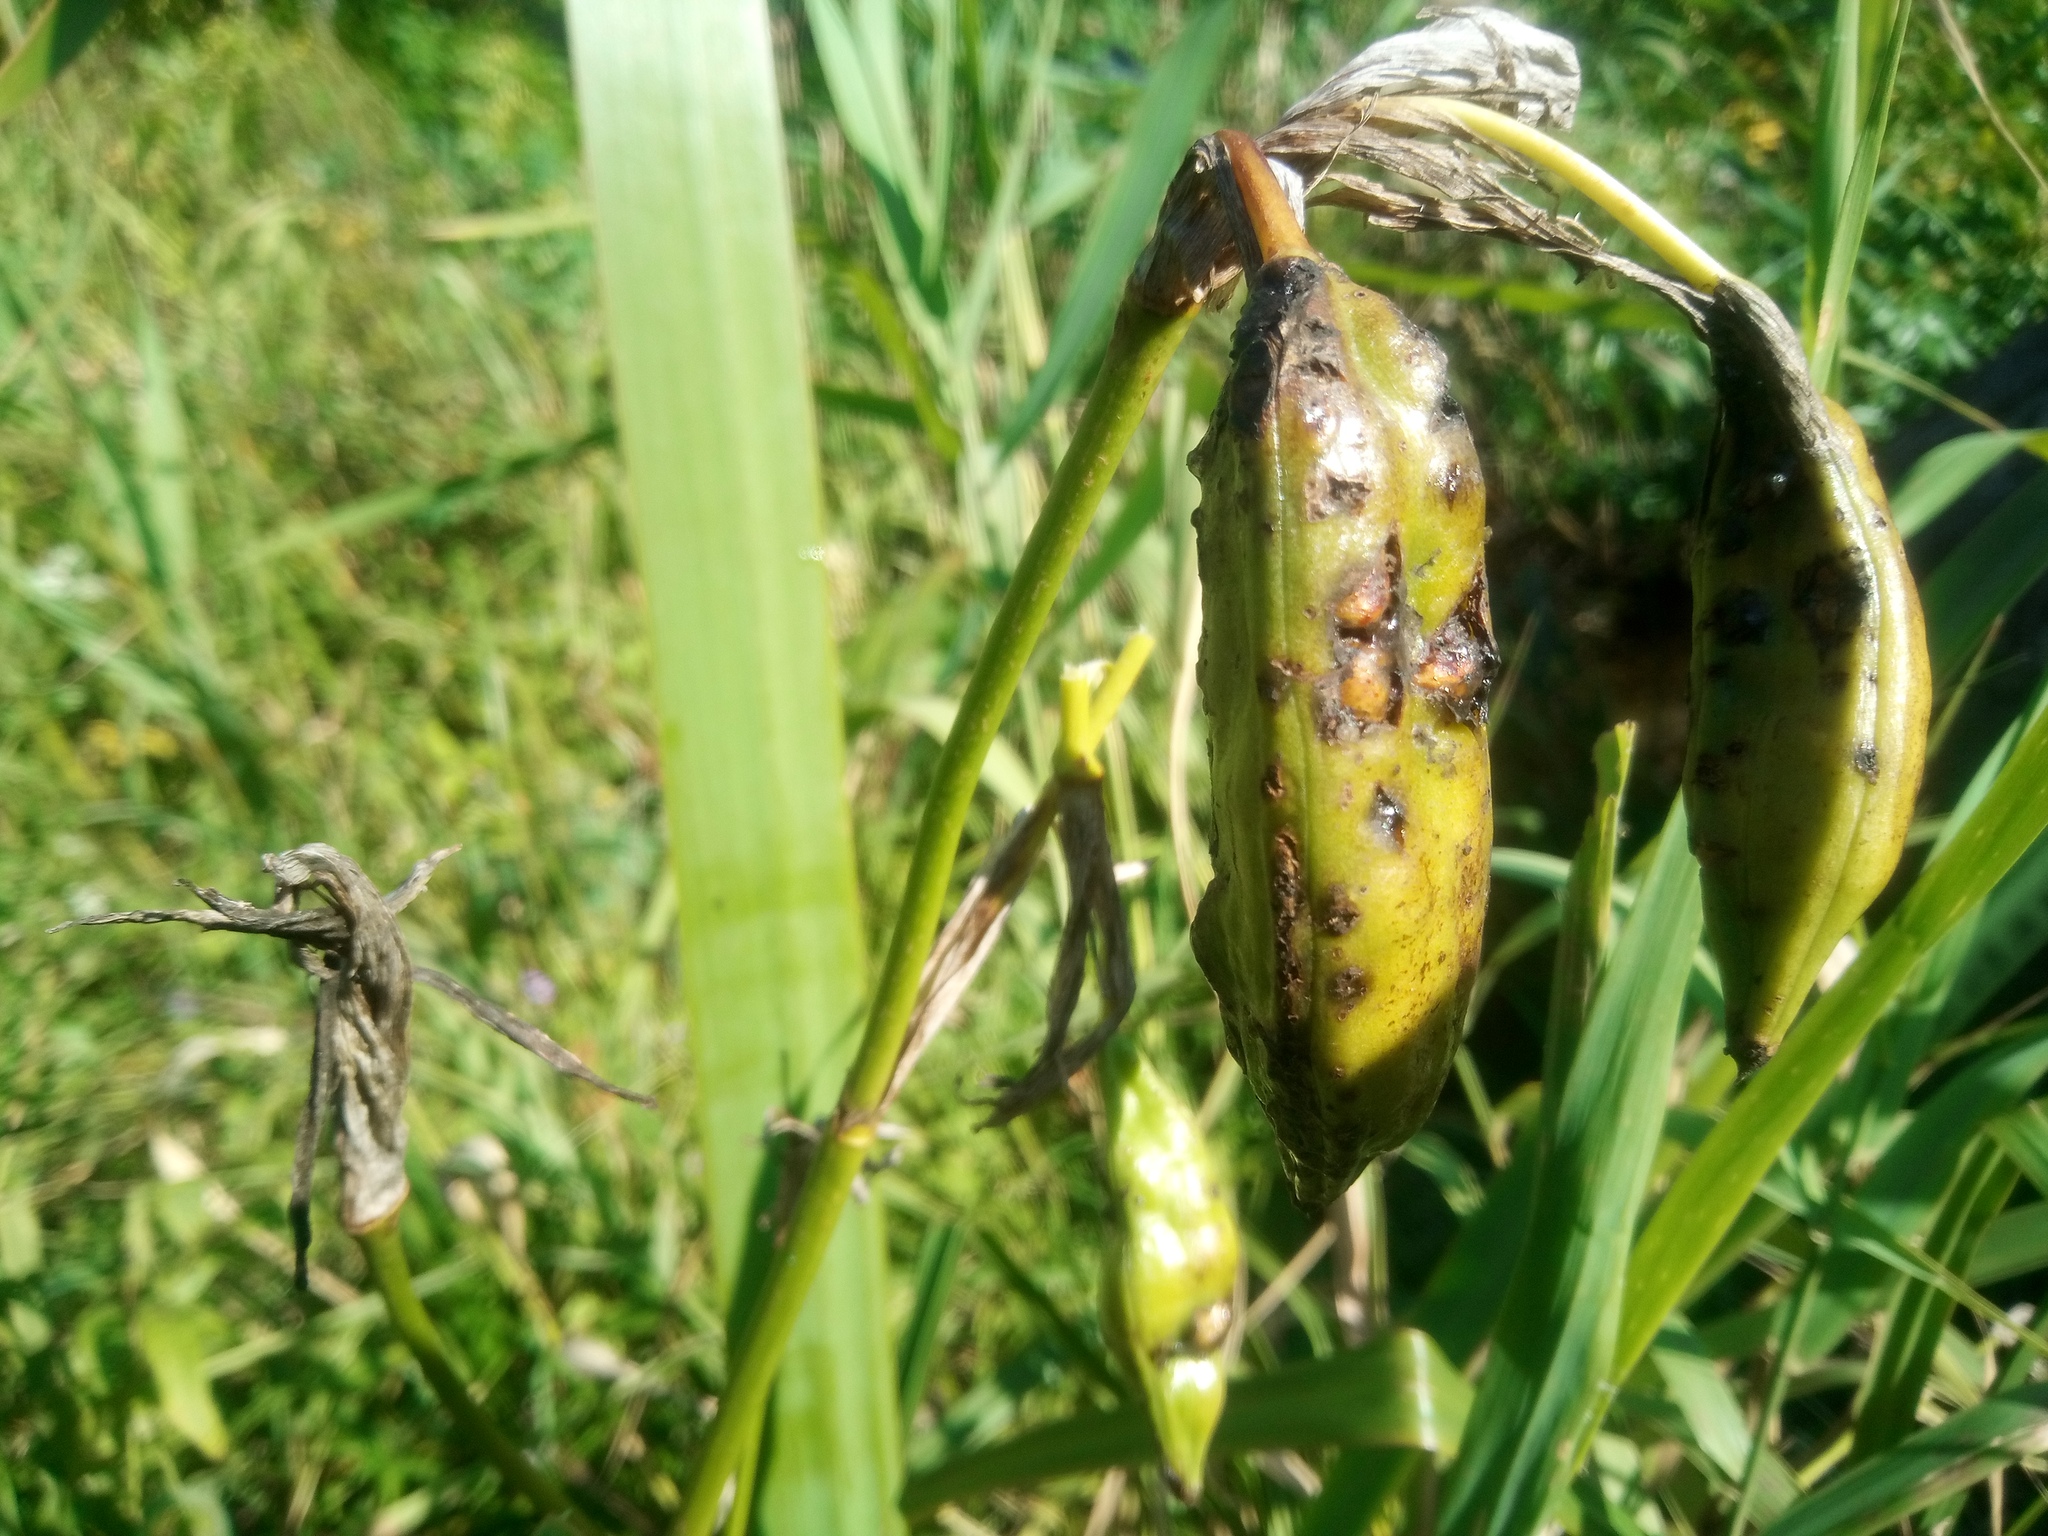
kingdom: Plantae
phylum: Tracheophyta
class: Liliopsida
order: Asparagales
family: Iridaceae
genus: Iris
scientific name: Iris pseudacorus
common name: Yellow flag
